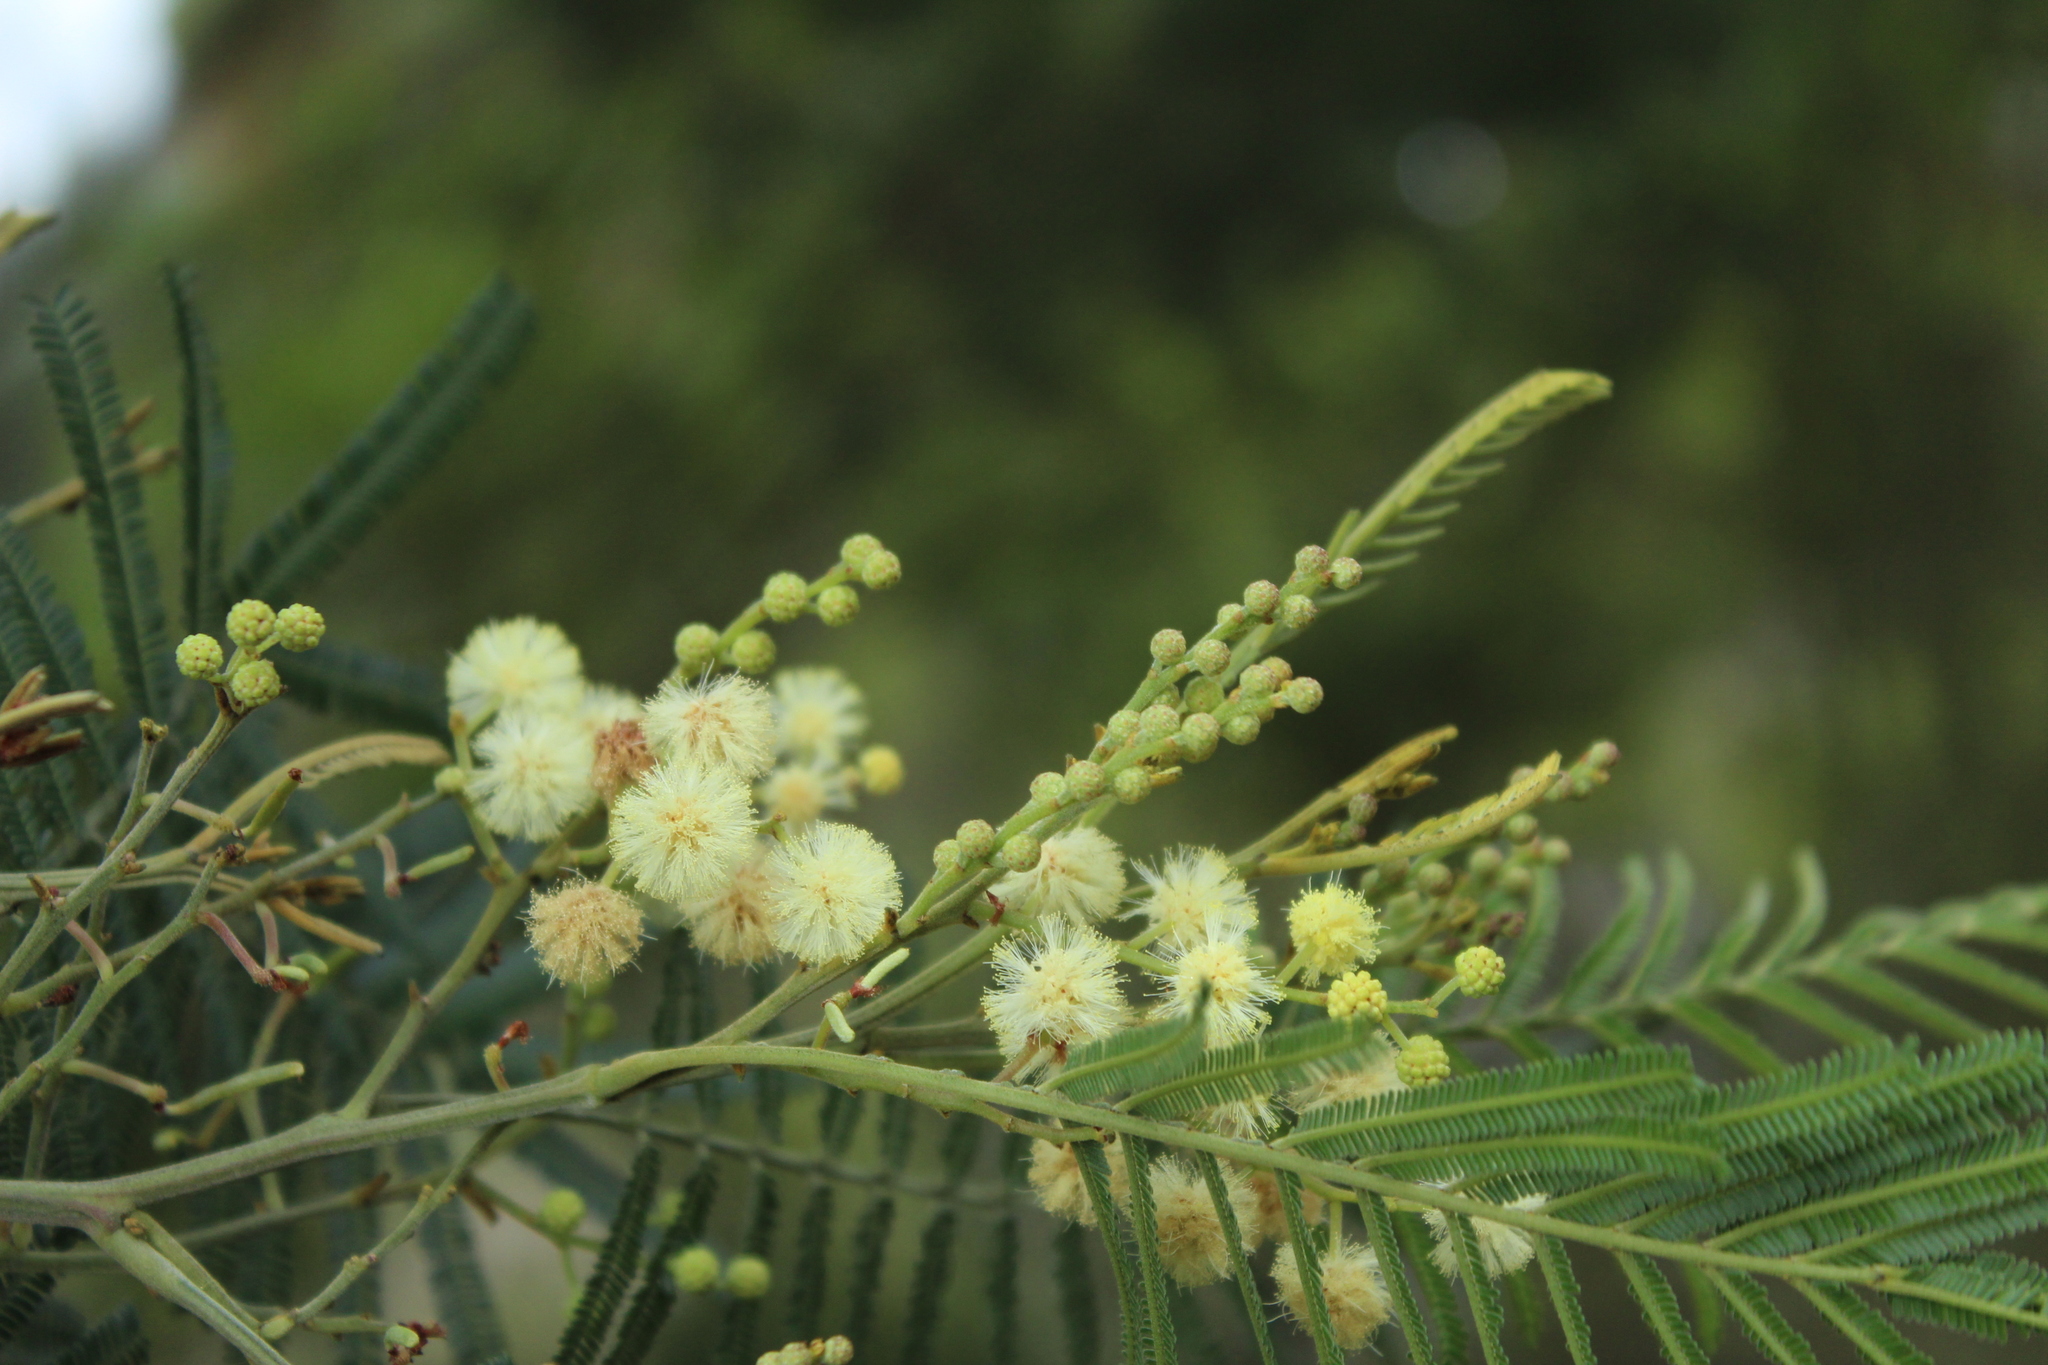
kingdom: Plantae
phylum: Tracheophyta
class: Magnoliopsida
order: Fabales
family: Fabaceae
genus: Acacia
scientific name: Acacia mearnsii
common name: Black wattle
